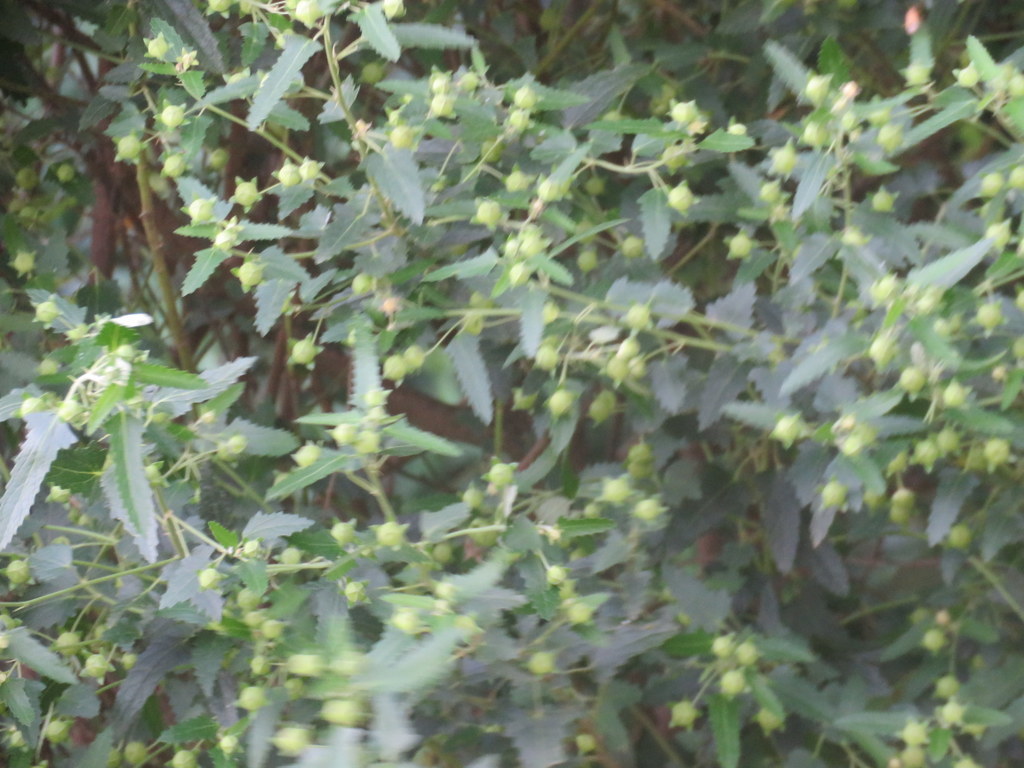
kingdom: Plantae
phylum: Tracheophyta
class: Magnoliopsida
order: Malvales
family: Malvaceae
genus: Pavonia
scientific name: Pavonia hastata
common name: Spearleaf swampmallow
